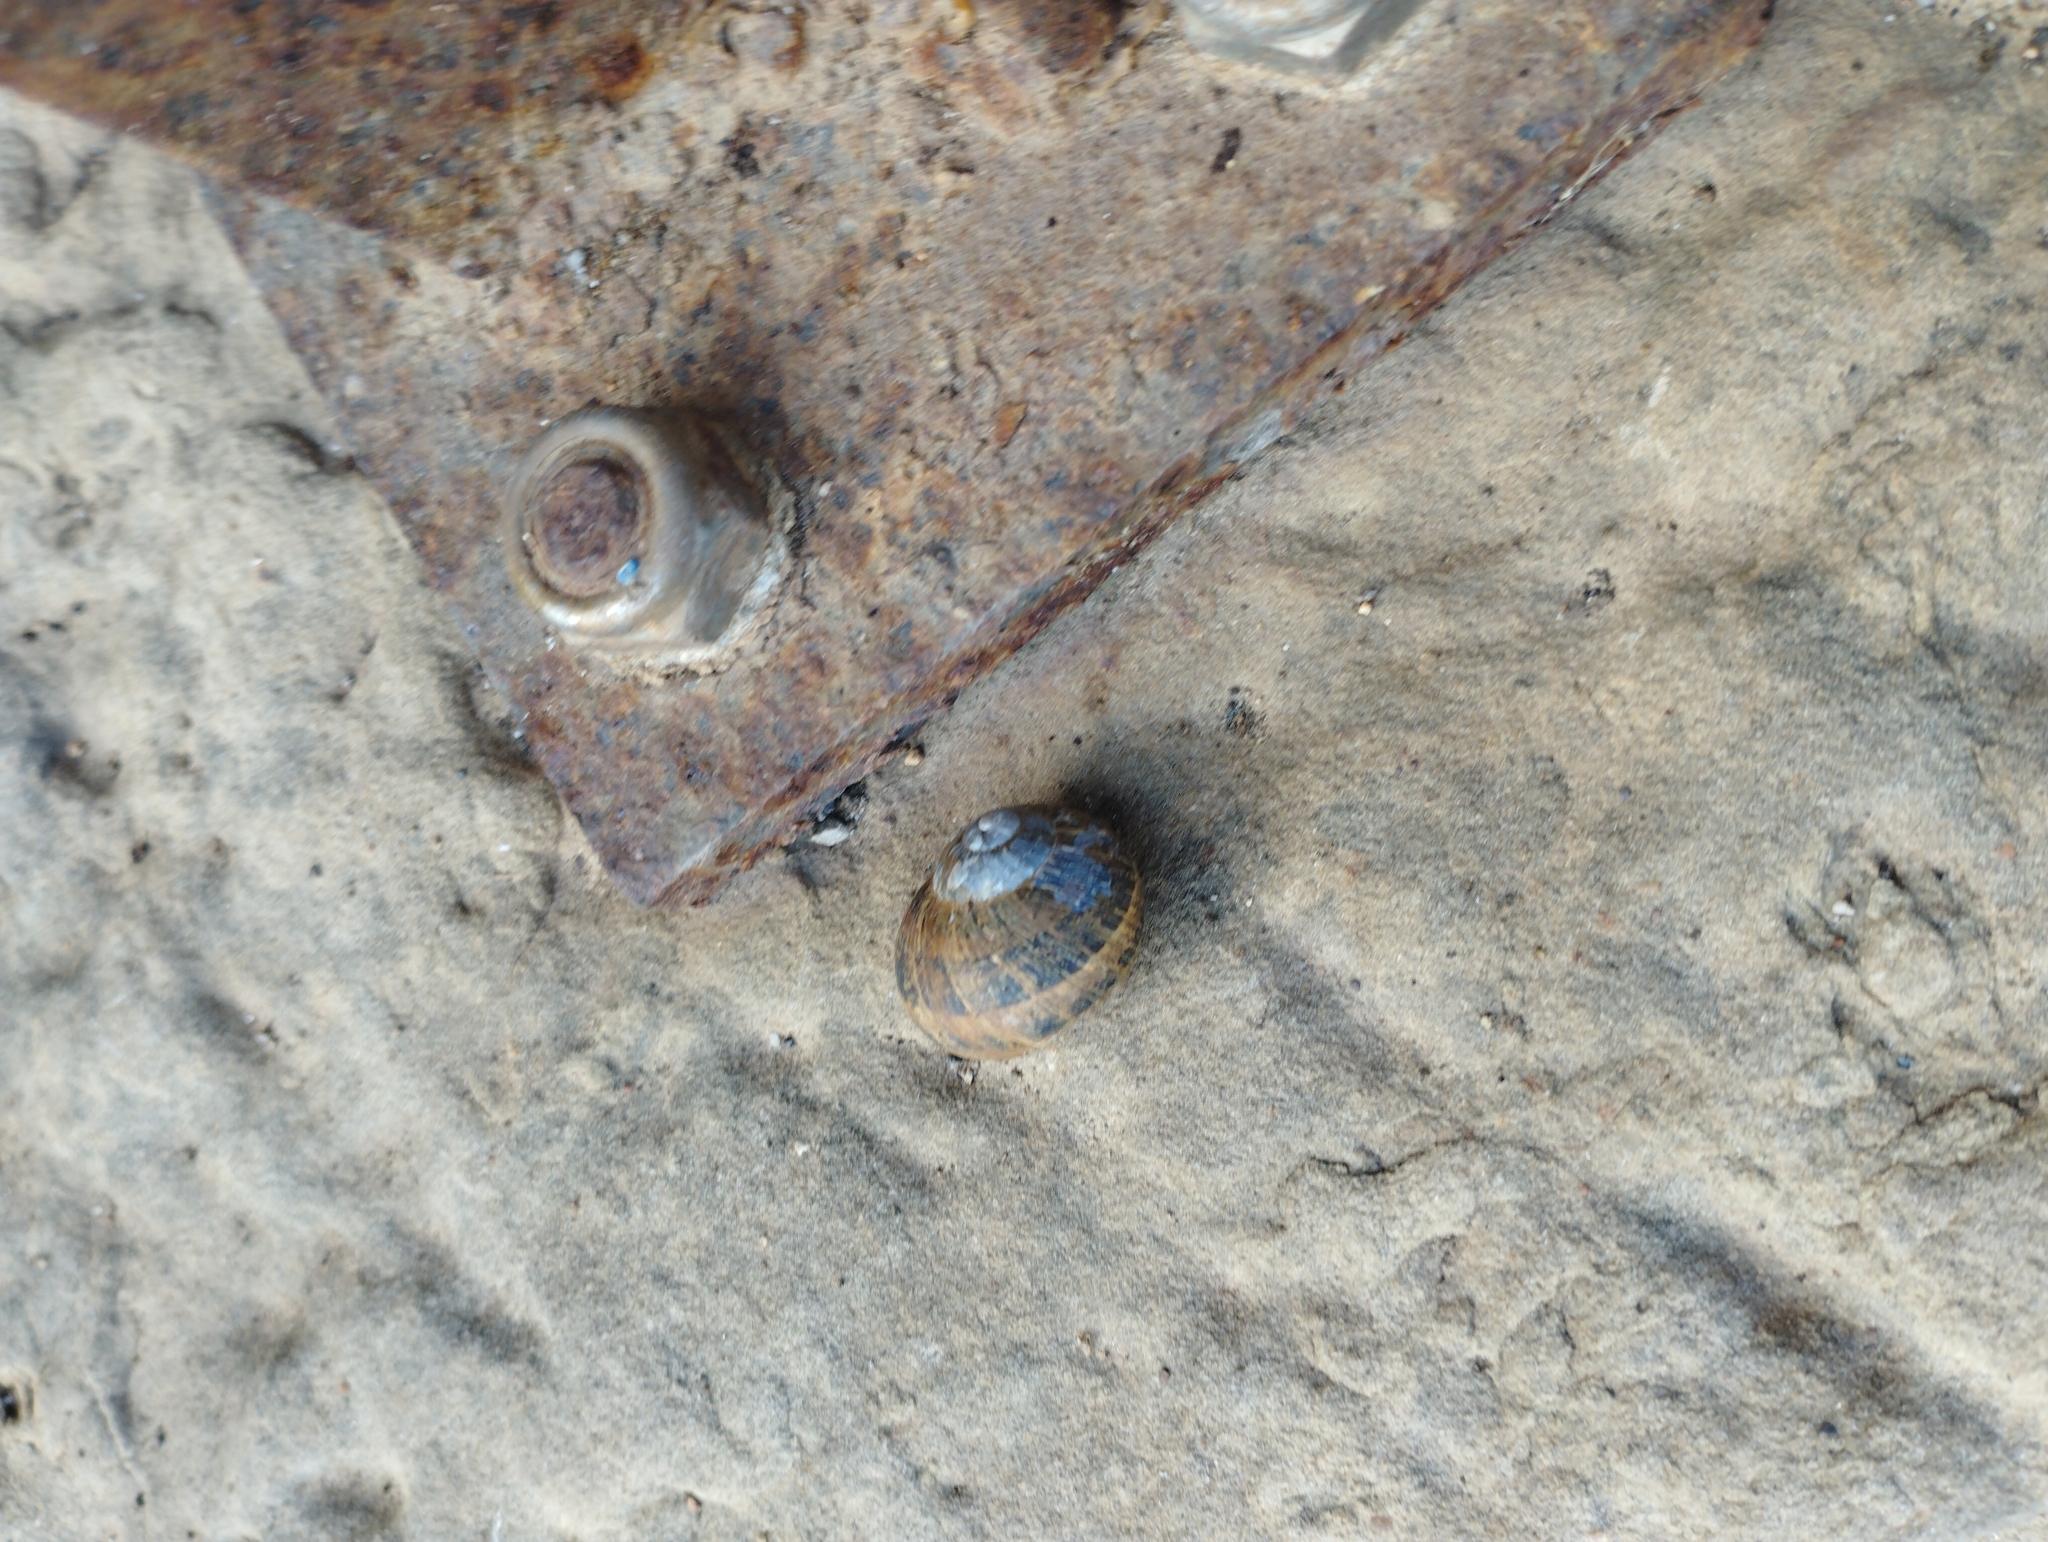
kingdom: Animalia
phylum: Mollusca
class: Gastropoda
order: Stylommatophora
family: Helicidae
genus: Cornu
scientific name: Cornu aspersum
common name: Brown garden snail
